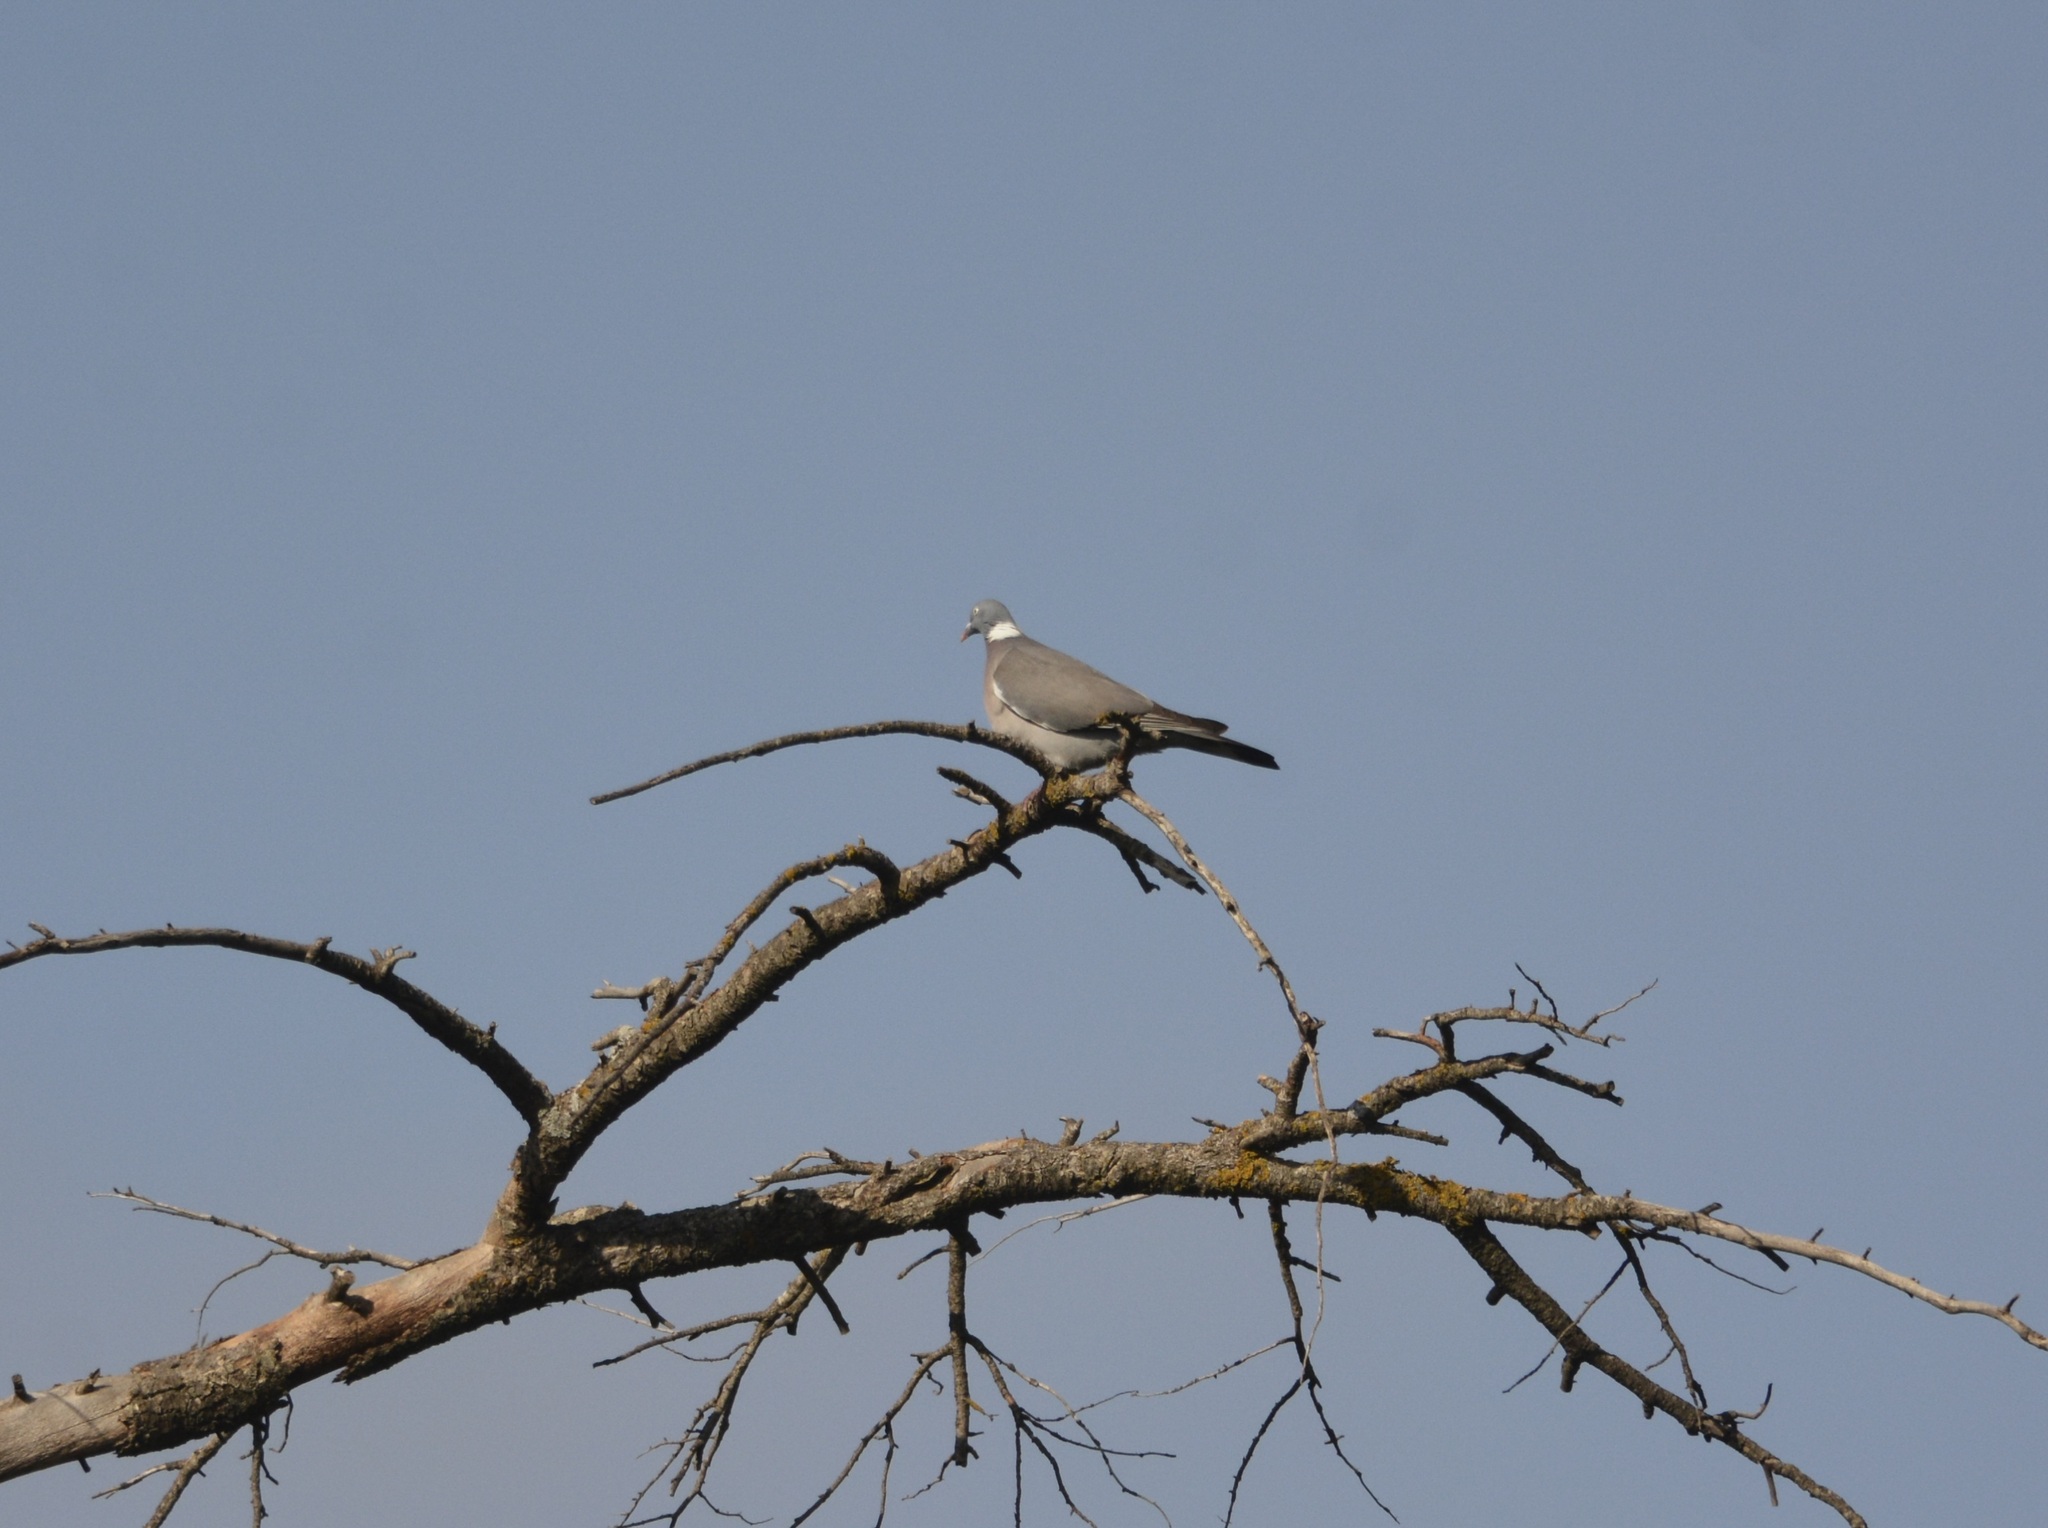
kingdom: Animalia
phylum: Chordata
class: Aves
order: Columbiformes
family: Columbidae
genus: Columba
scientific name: Columba palumbus
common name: Common wood pigeon
